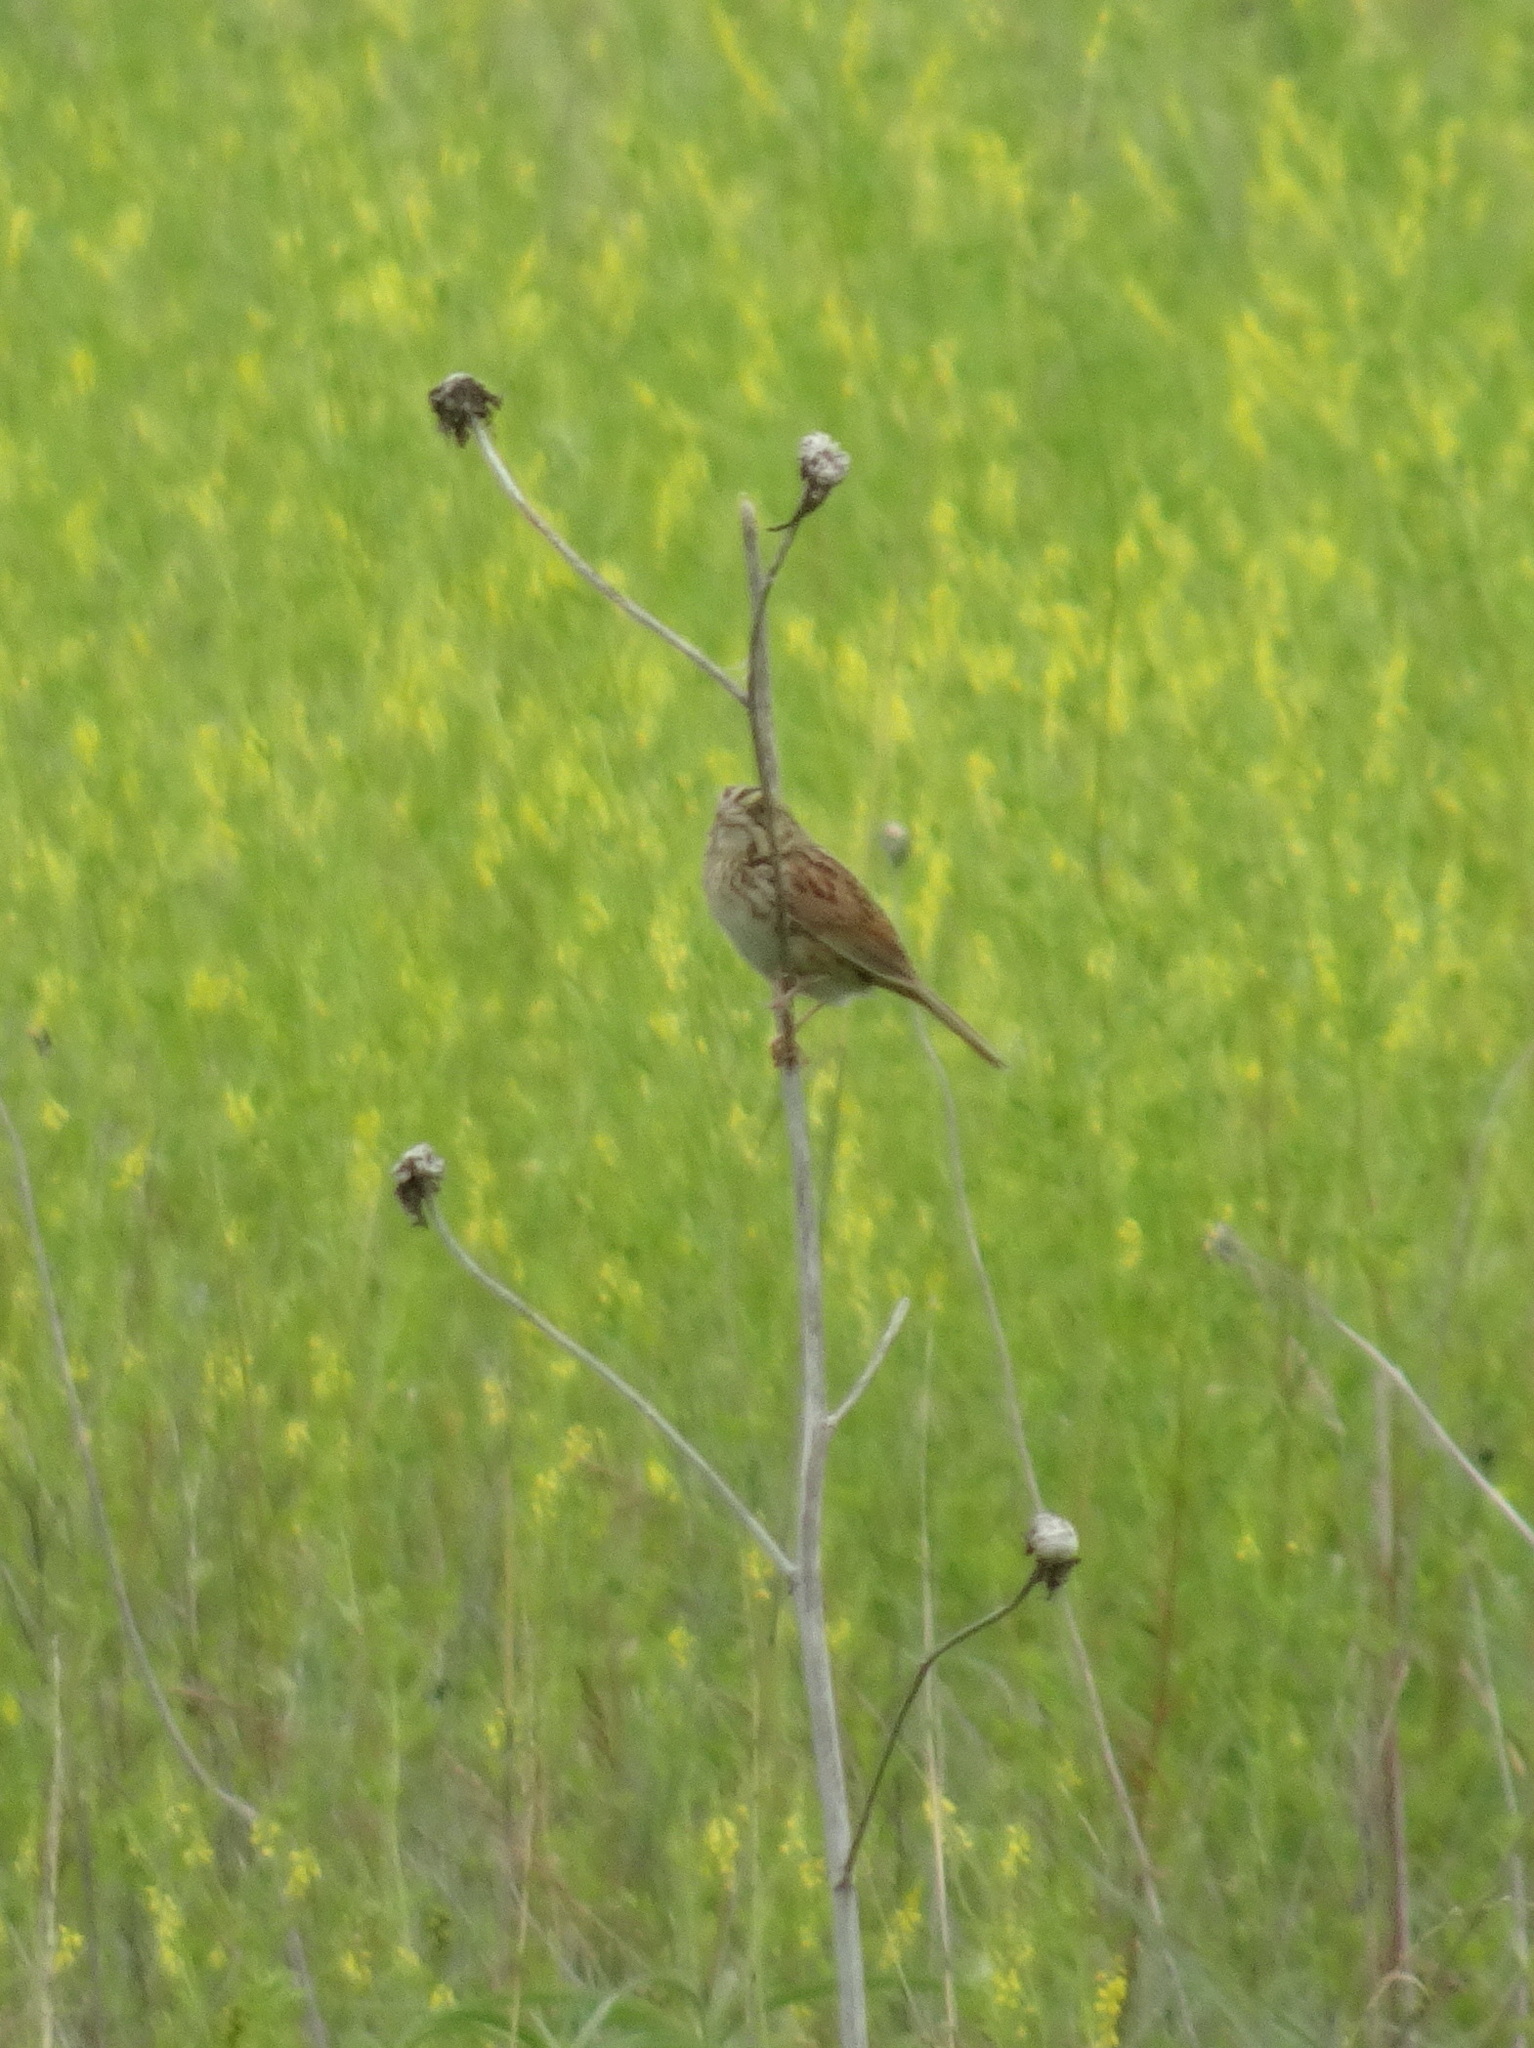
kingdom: Animalia
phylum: Chordata
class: Aves
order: Passeriformes
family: Passerellidae
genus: Centronyx
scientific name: Centronyx henslowii
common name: Henslow's sparrow
